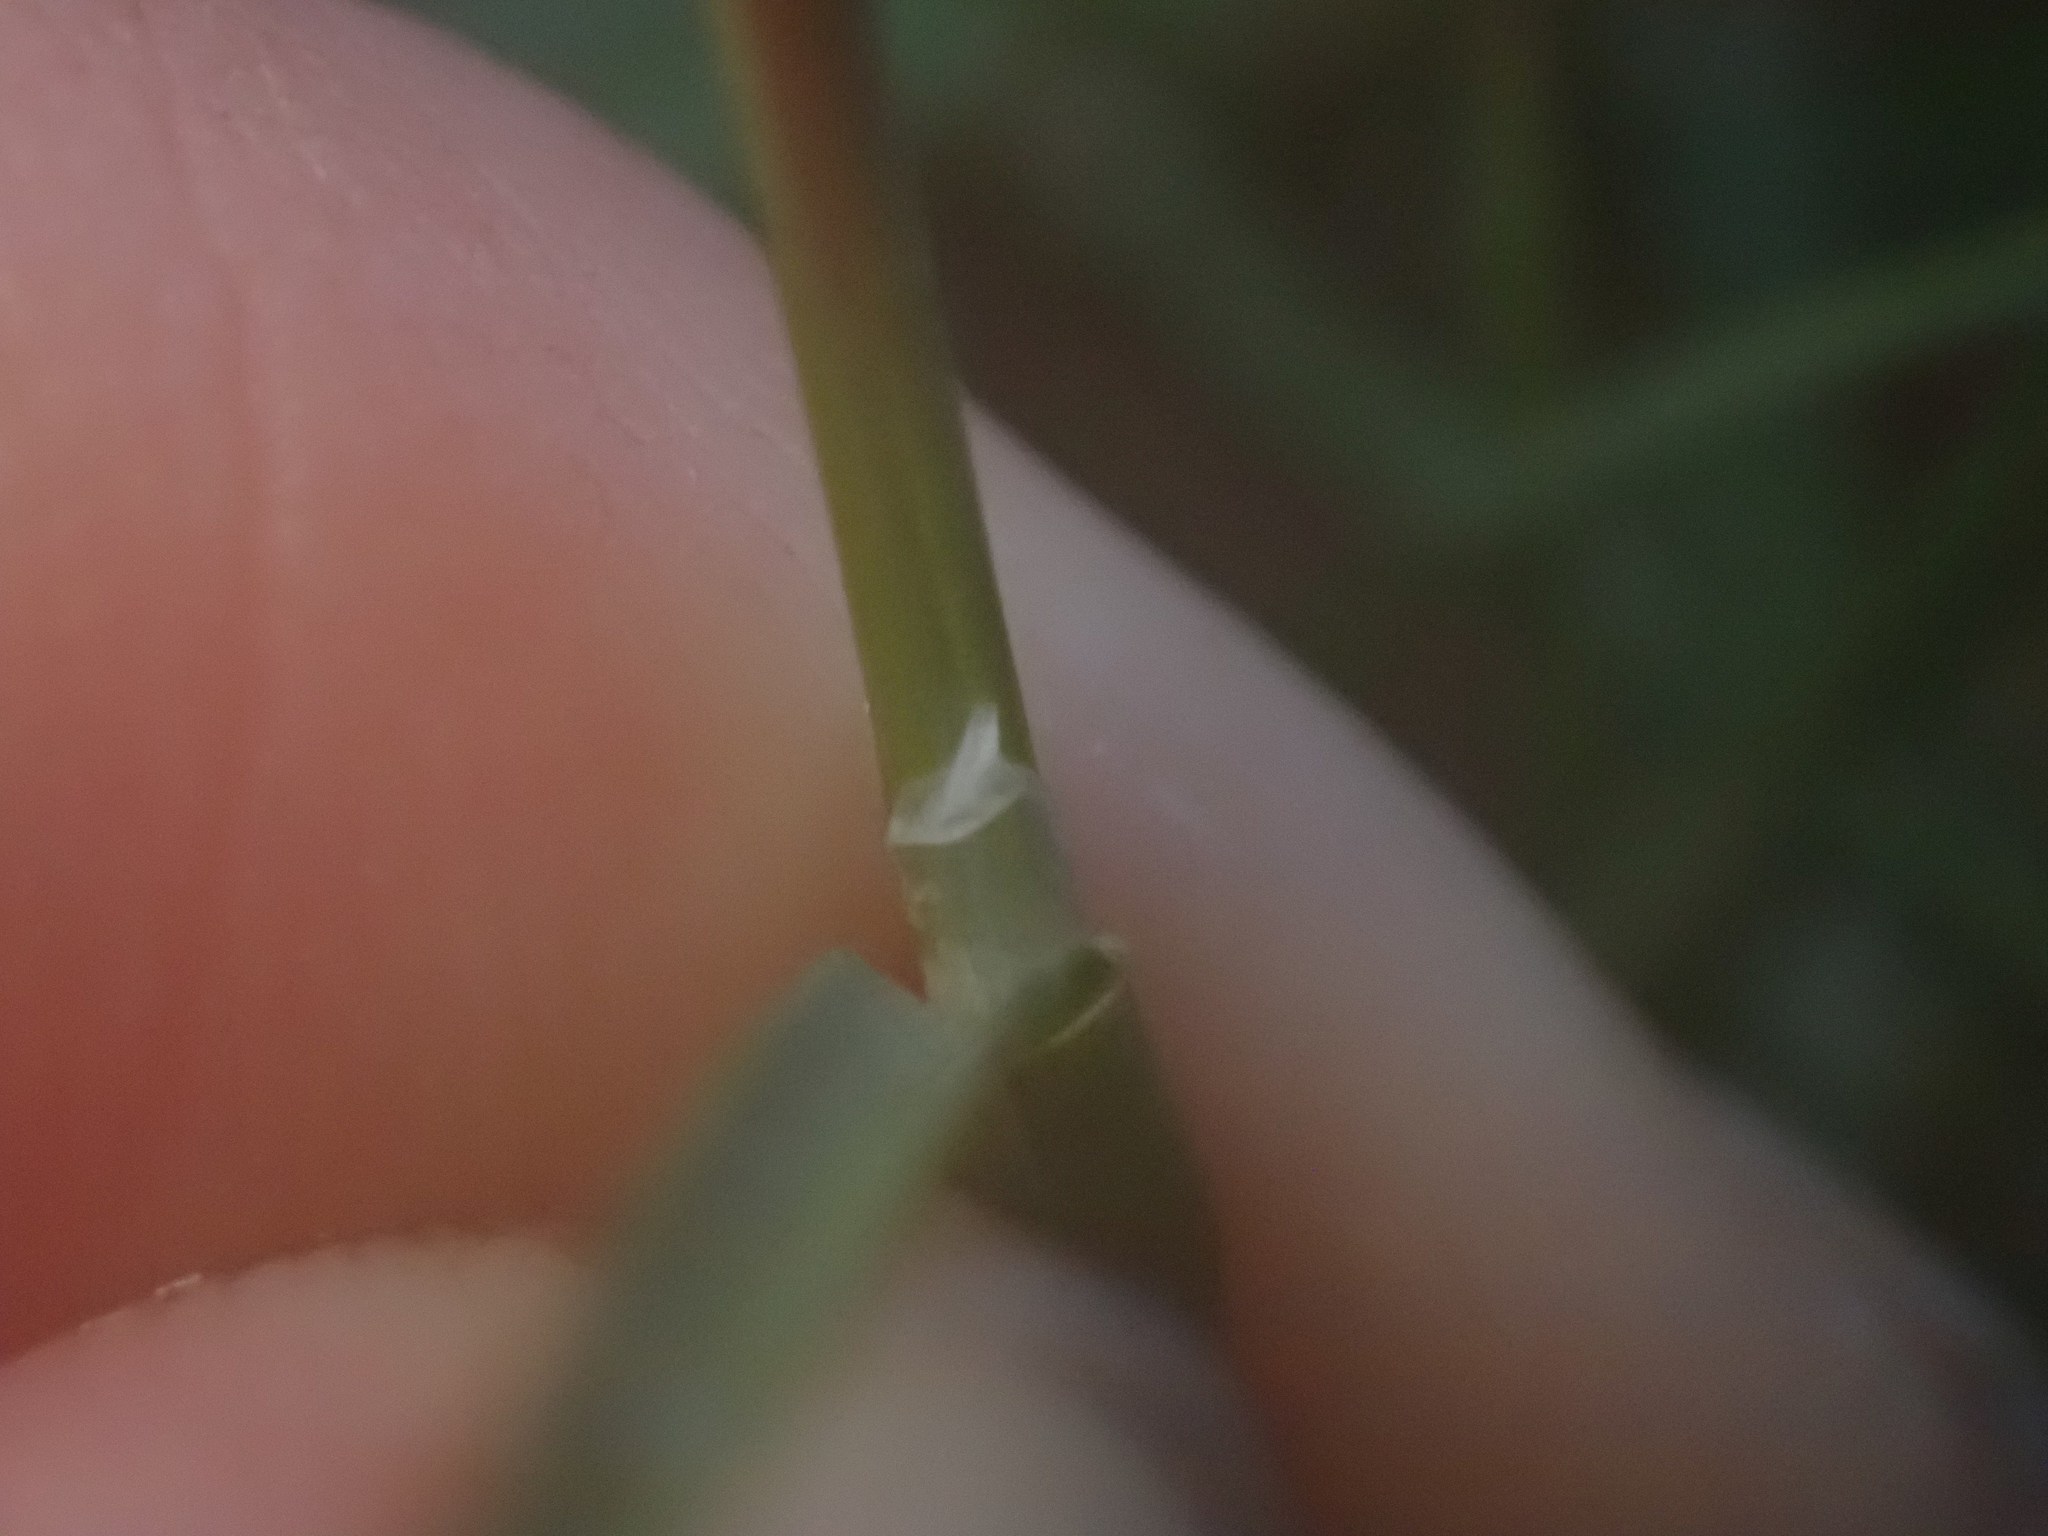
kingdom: Plantae
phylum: Tracheophyta
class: Liliopsida
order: Poales
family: Poaceae
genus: Poa
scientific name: Poa bulbosa
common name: Bulbous bluegrass
